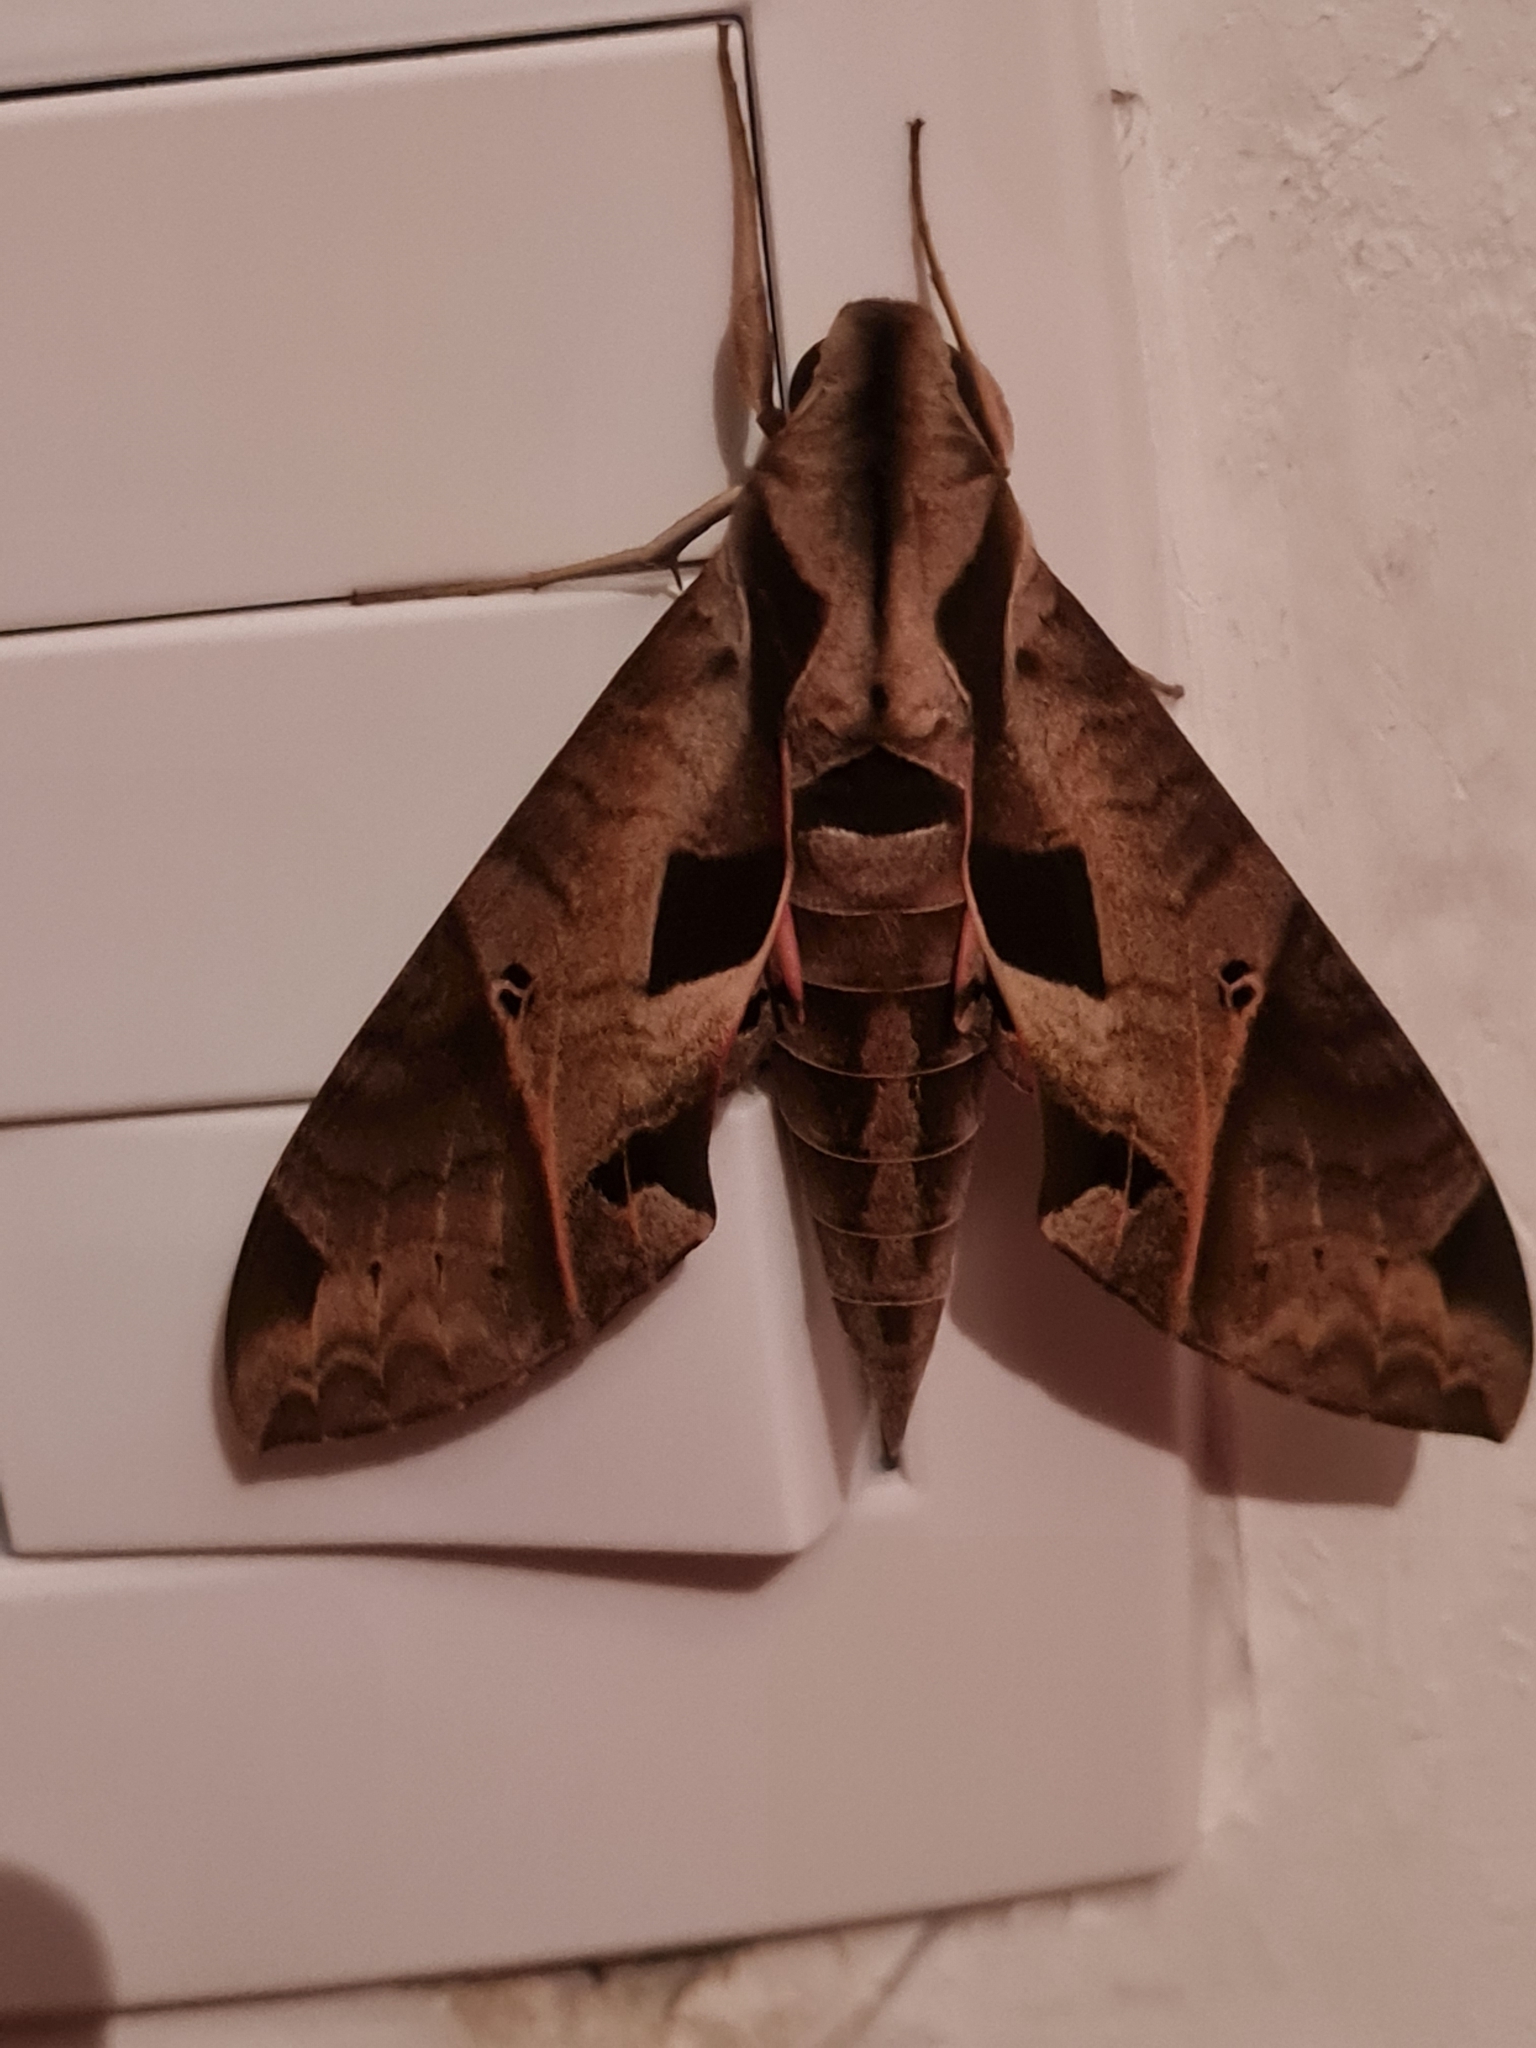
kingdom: Animalia
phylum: Arthropoda
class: Insecta
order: Lepidoptera
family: Sphingidae
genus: Eumorpha
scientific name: Eumorpha analis
